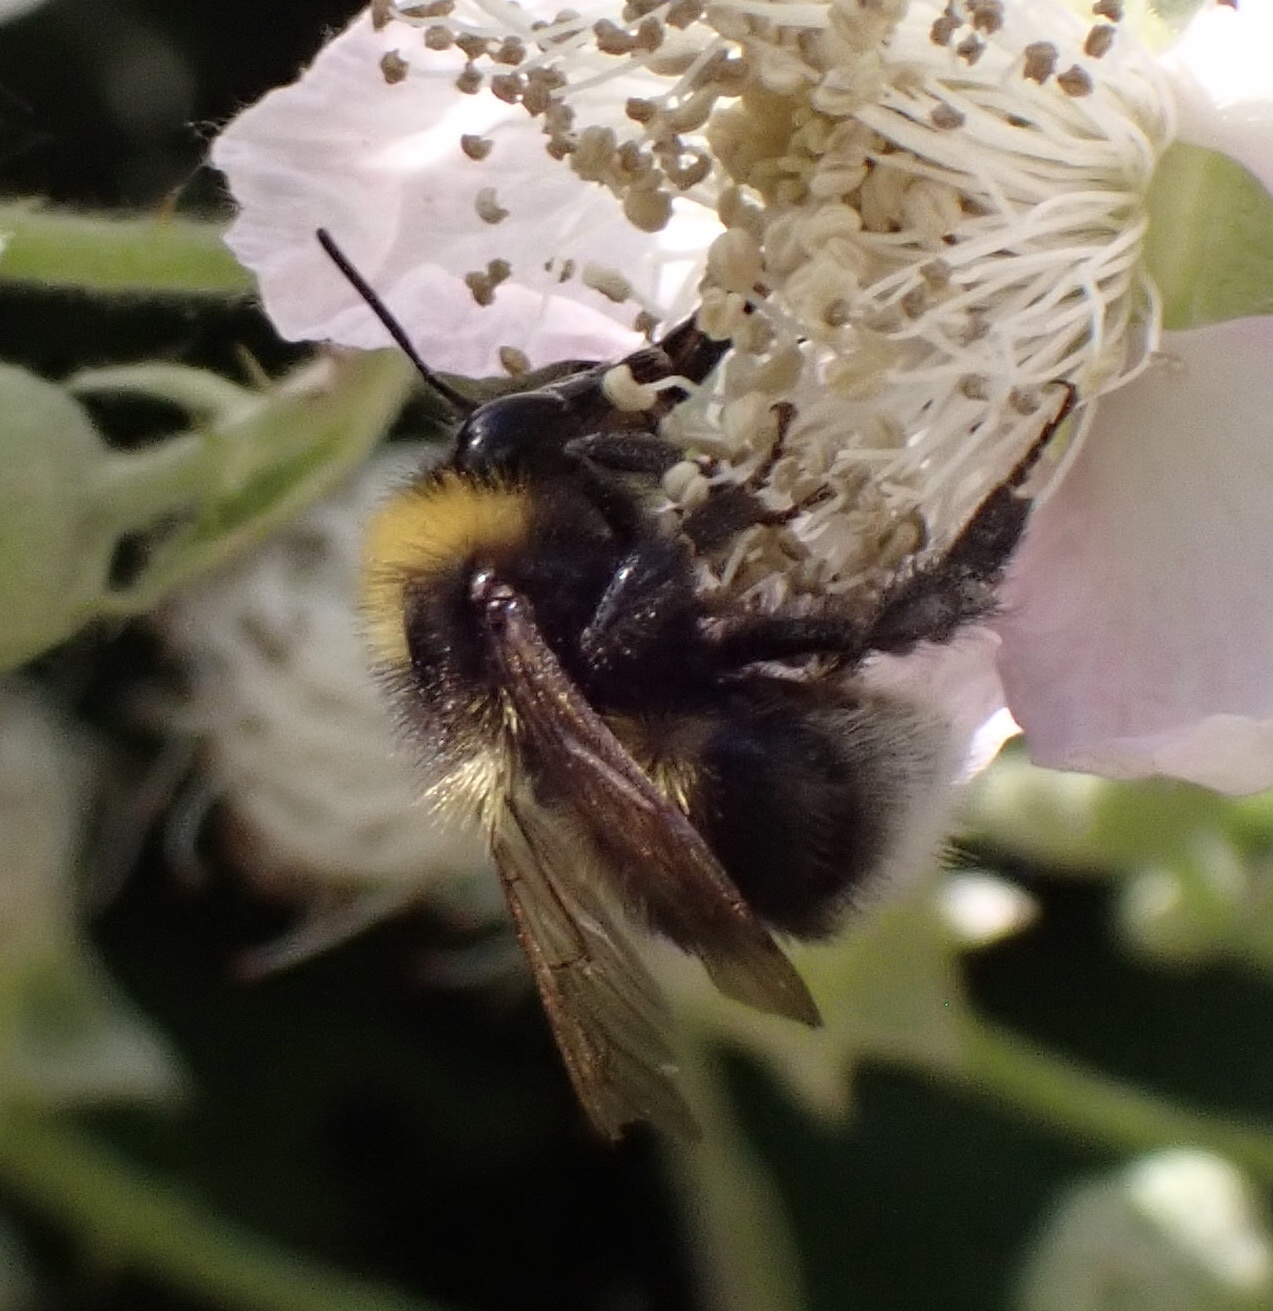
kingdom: Animalia
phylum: Arthropoda
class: Insecta
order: Hymenoptera
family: Apidae
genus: Bombus
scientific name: Bombus hortorum
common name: Garden bumblebee
